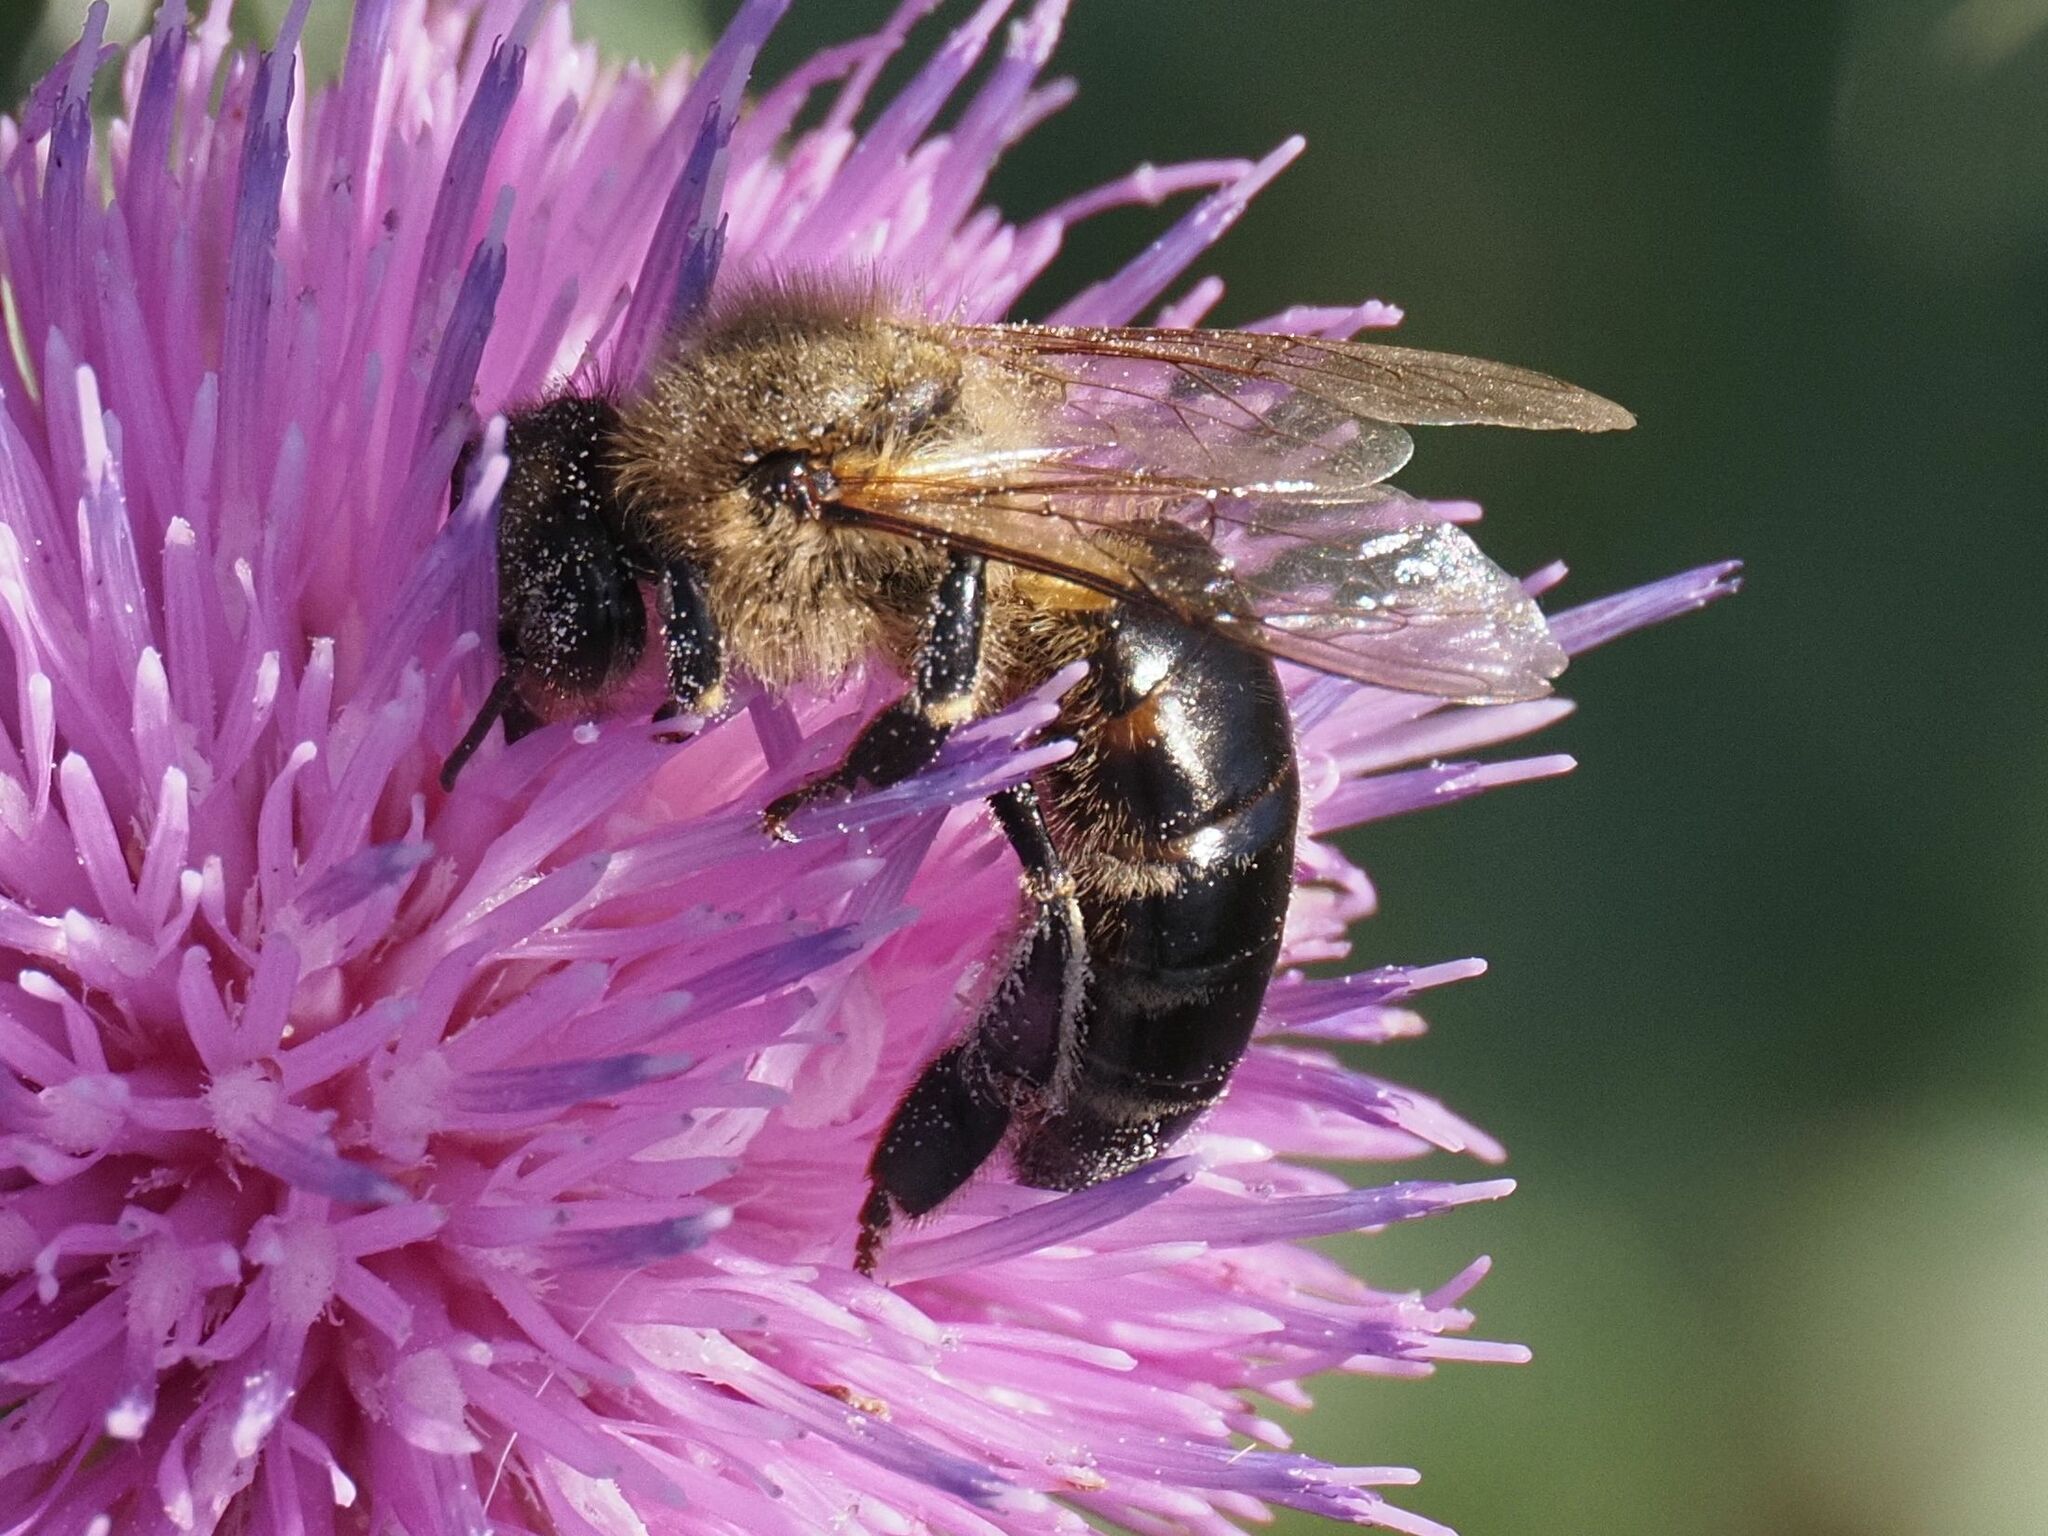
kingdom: Animalia
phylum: Arthropoda
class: Insecta
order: Hymenoptera
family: Apidae
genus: Apis
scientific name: Apis mellifera
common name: Honey bee
